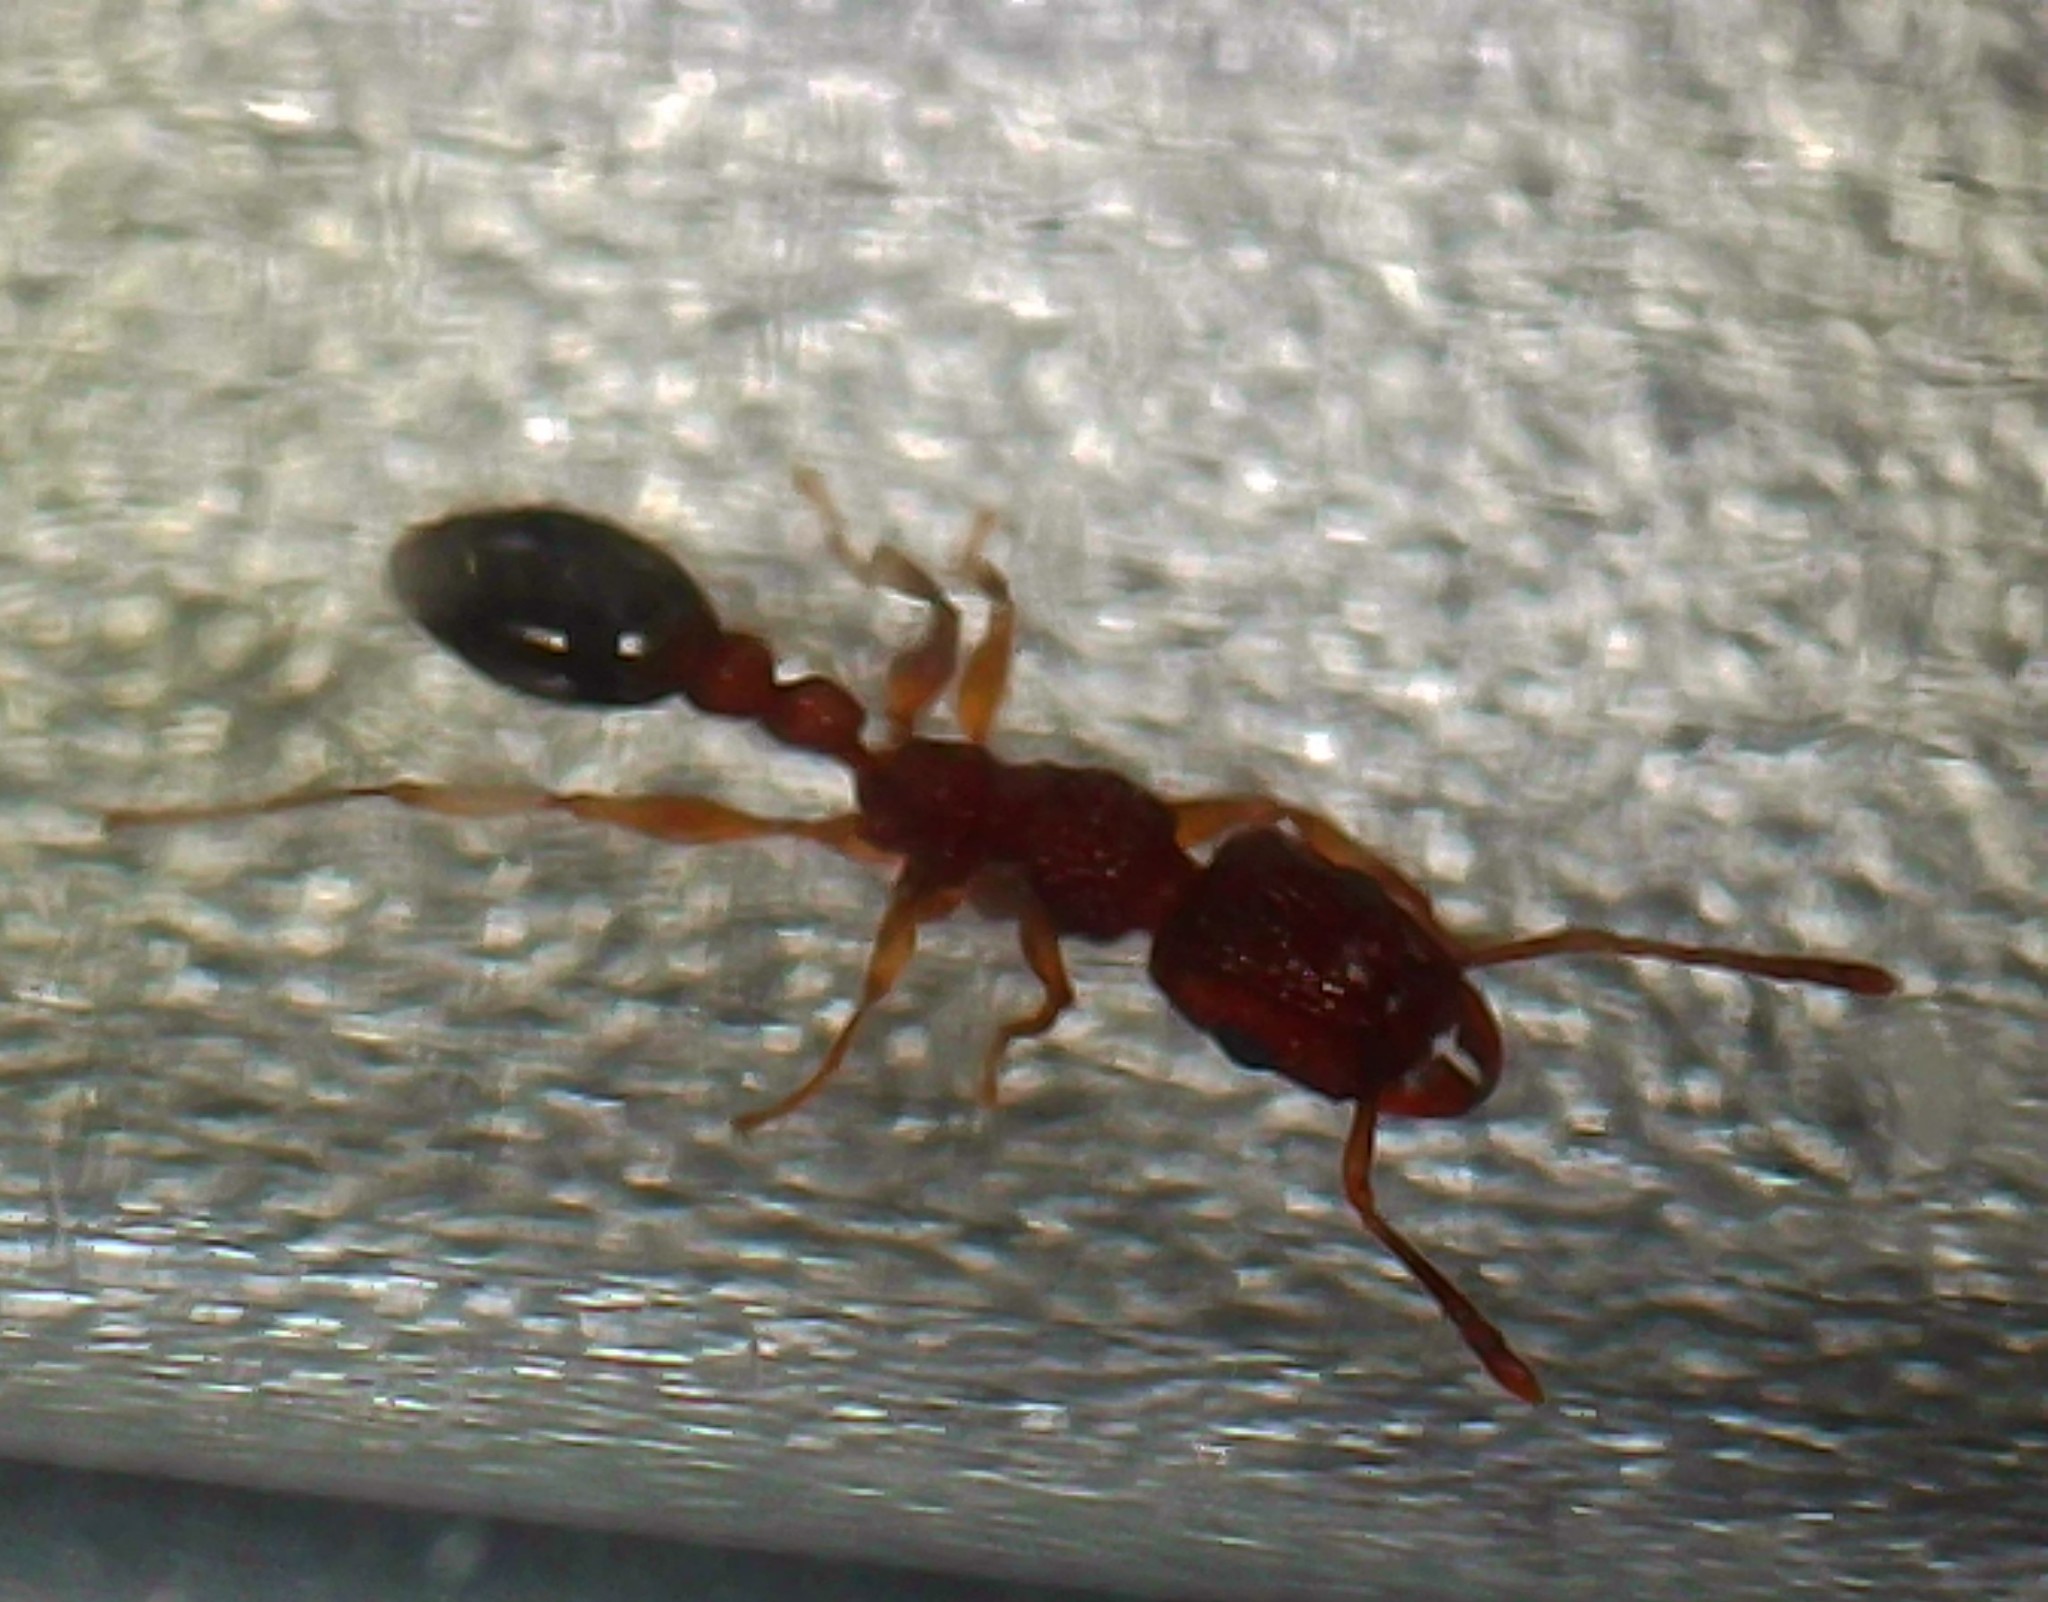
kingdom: Animalia
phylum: Arthropoda
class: Insecta
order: Hymenoptera
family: Formicidae
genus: Tetramorium
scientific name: Tetramorium bicarinatum
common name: Guinea ant
